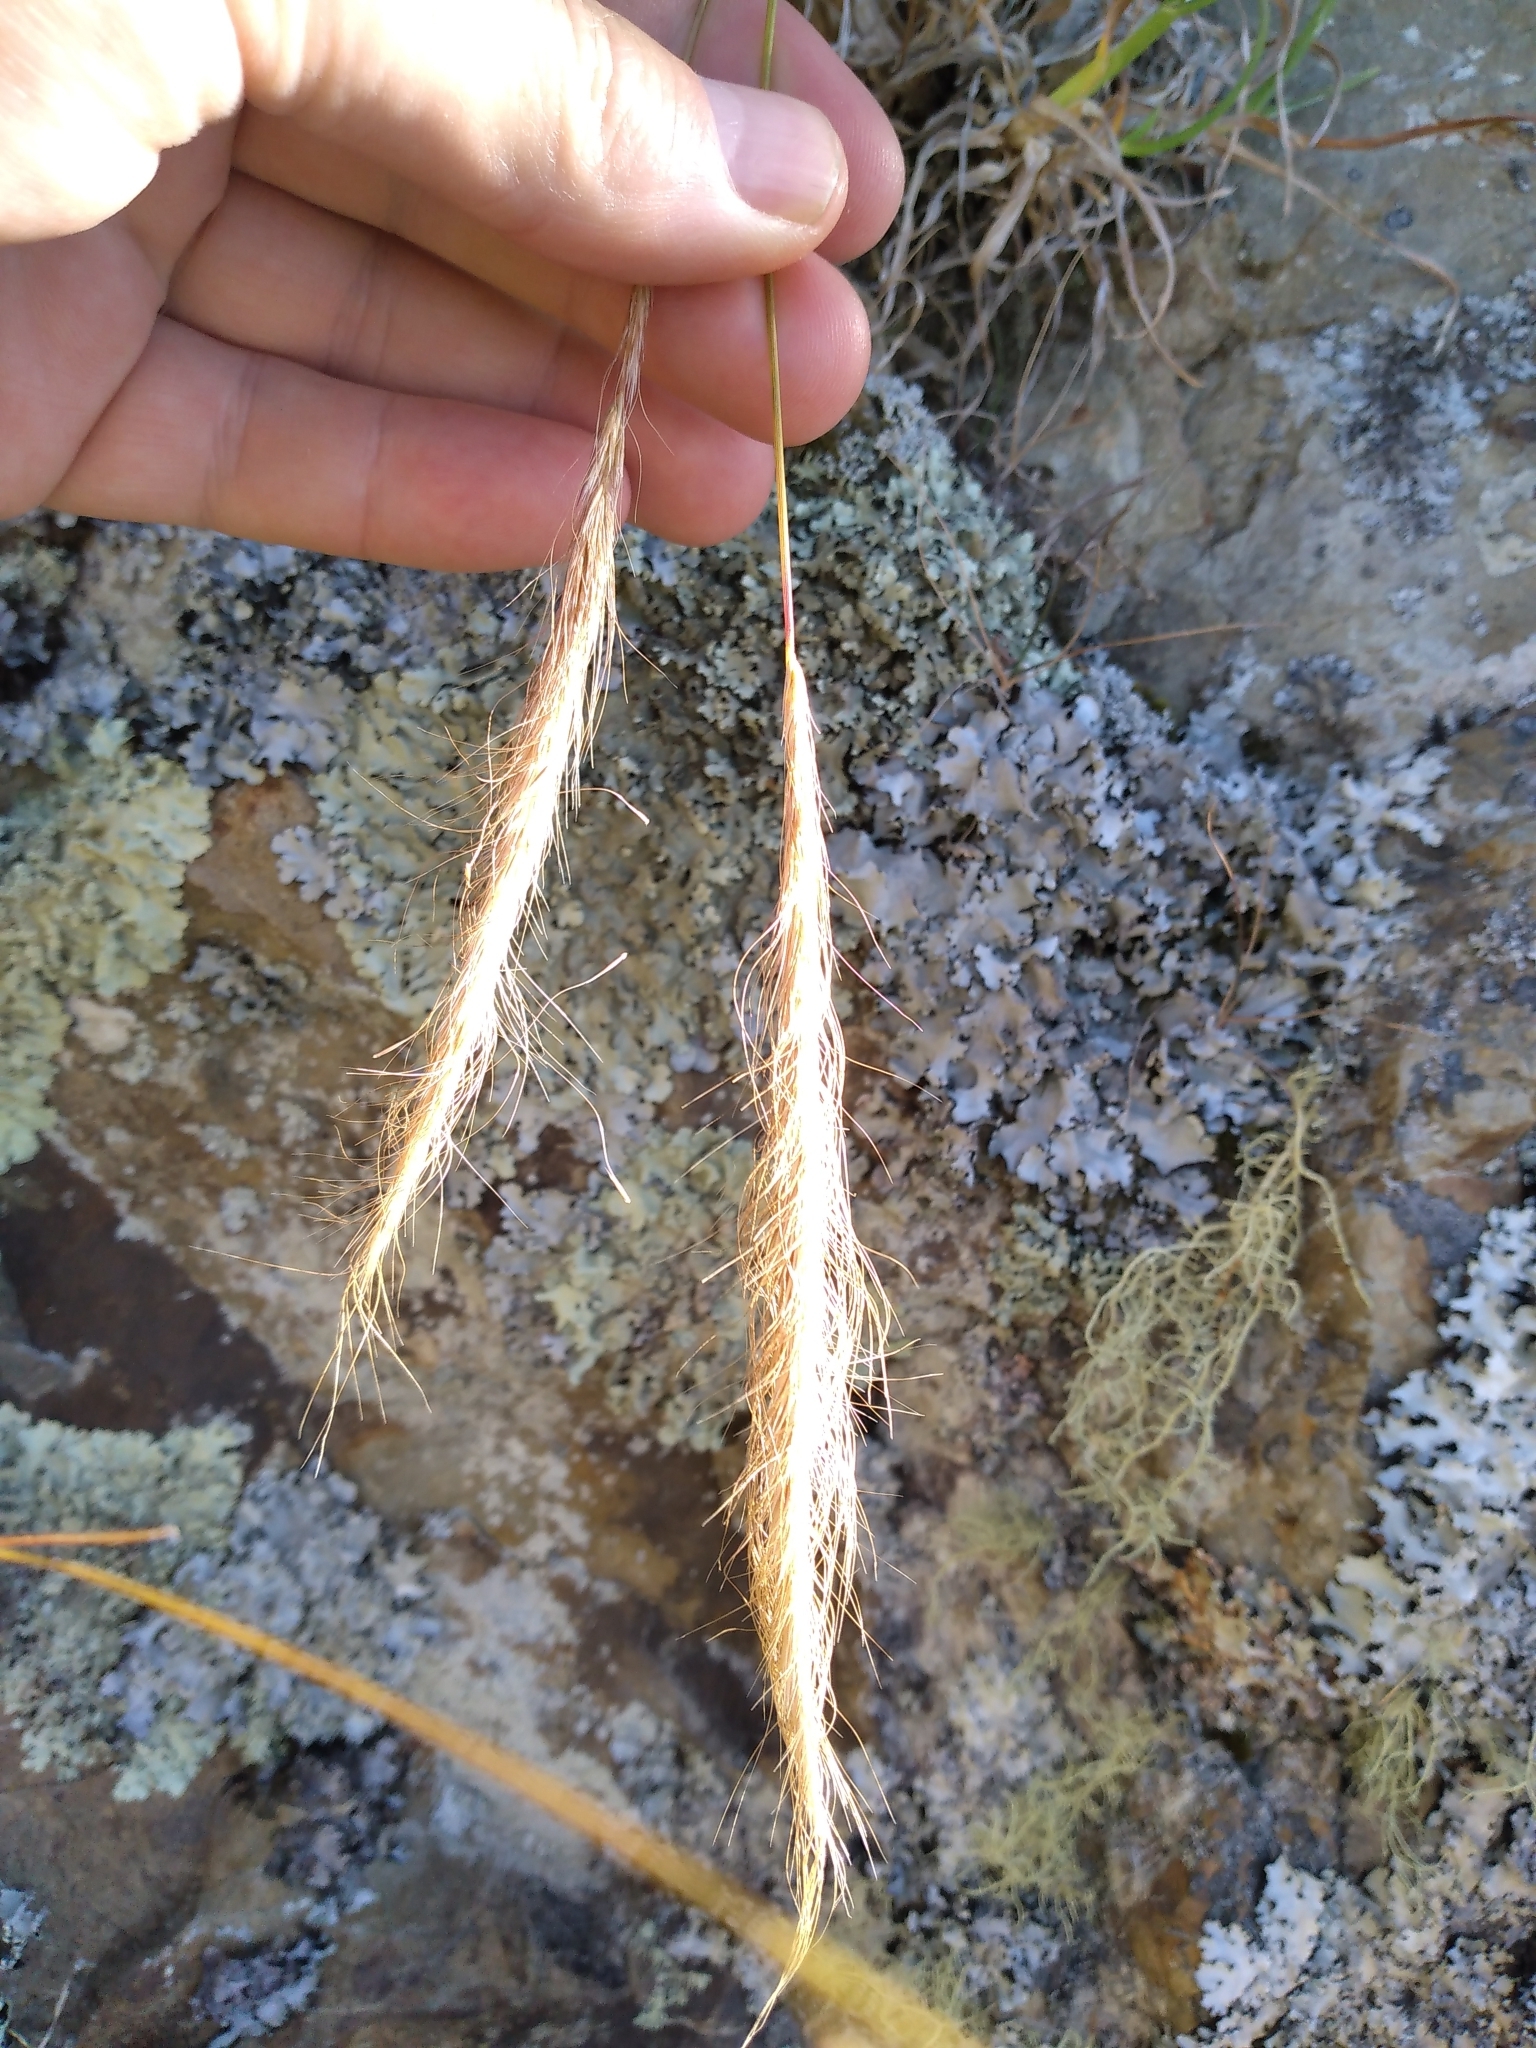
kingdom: Plantae
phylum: Tracheophyta
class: Liliopsida
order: Poales
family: Poaceae
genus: Dichelachne
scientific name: Dichelachne crinita
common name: Clovenfoot plumegrass
